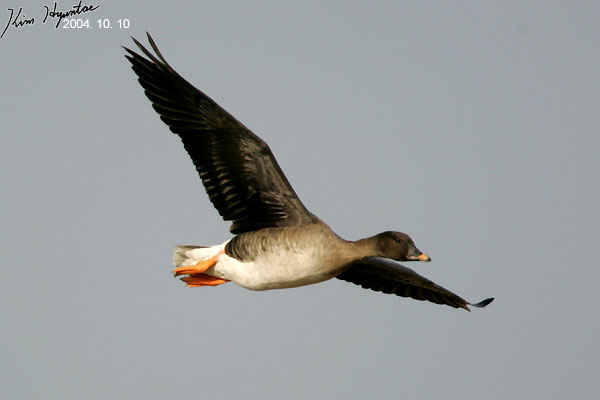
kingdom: Animalia
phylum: Chordata
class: Aves
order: Anseriformes
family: Anatidae
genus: Anser
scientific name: Anser fabalis
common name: Bean goose
